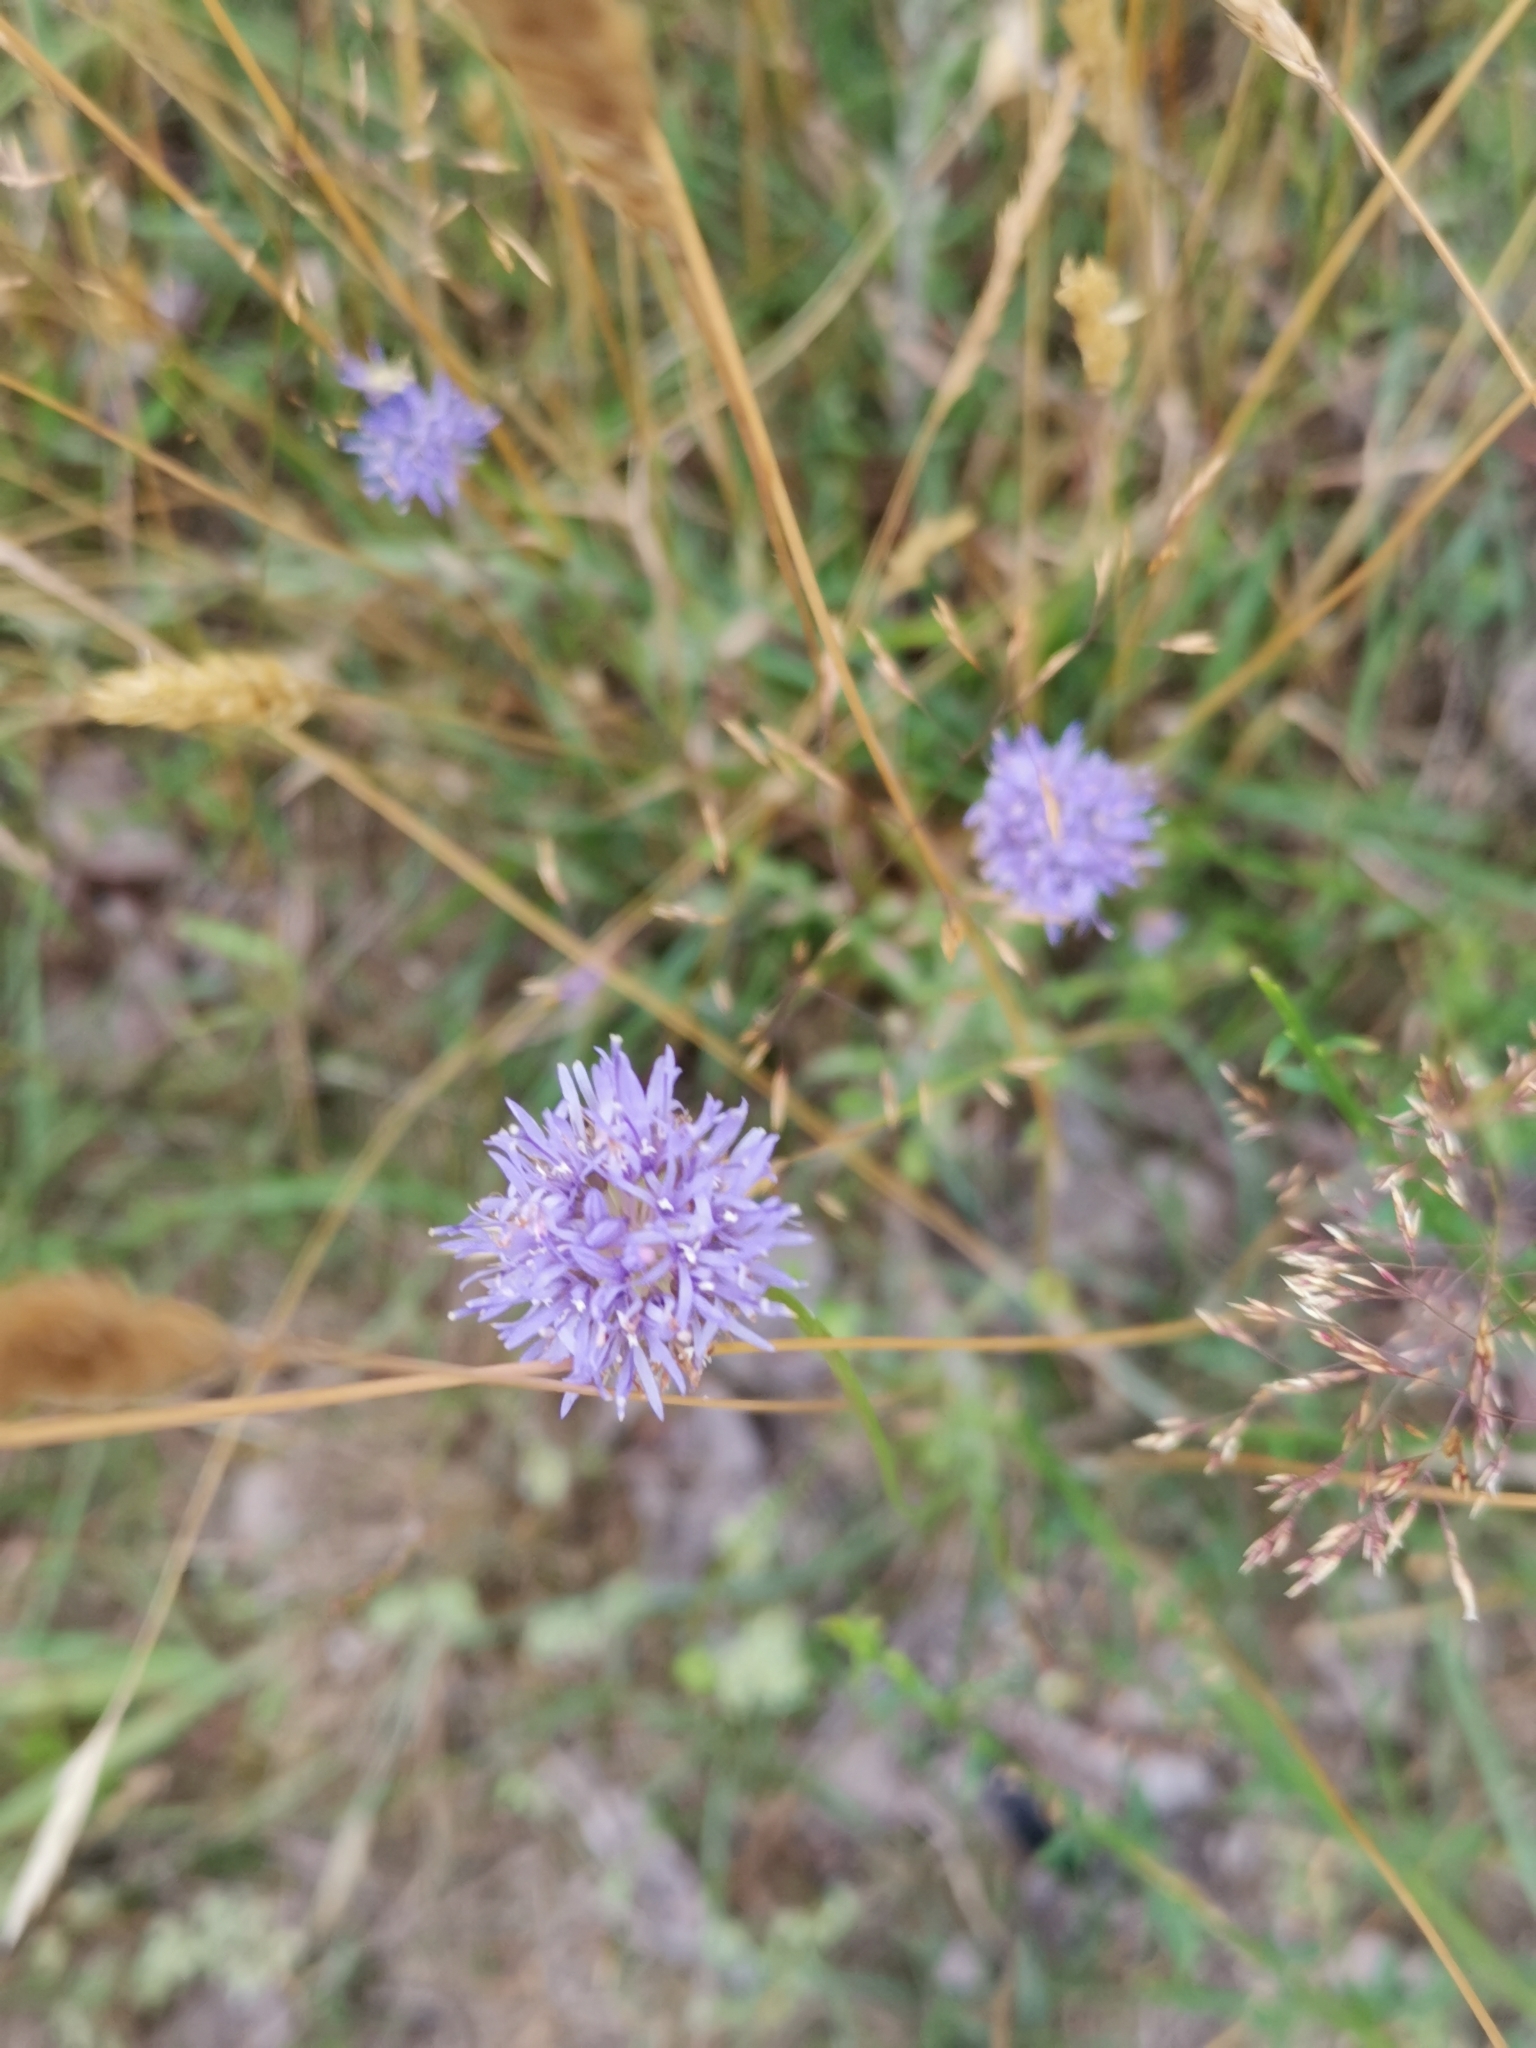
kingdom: Plantae
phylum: Tracheophyta
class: Magnoliopsida
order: Asterales
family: Campanulaceae
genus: Jasione
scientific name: Jasione montana
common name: Sheep's-bit
